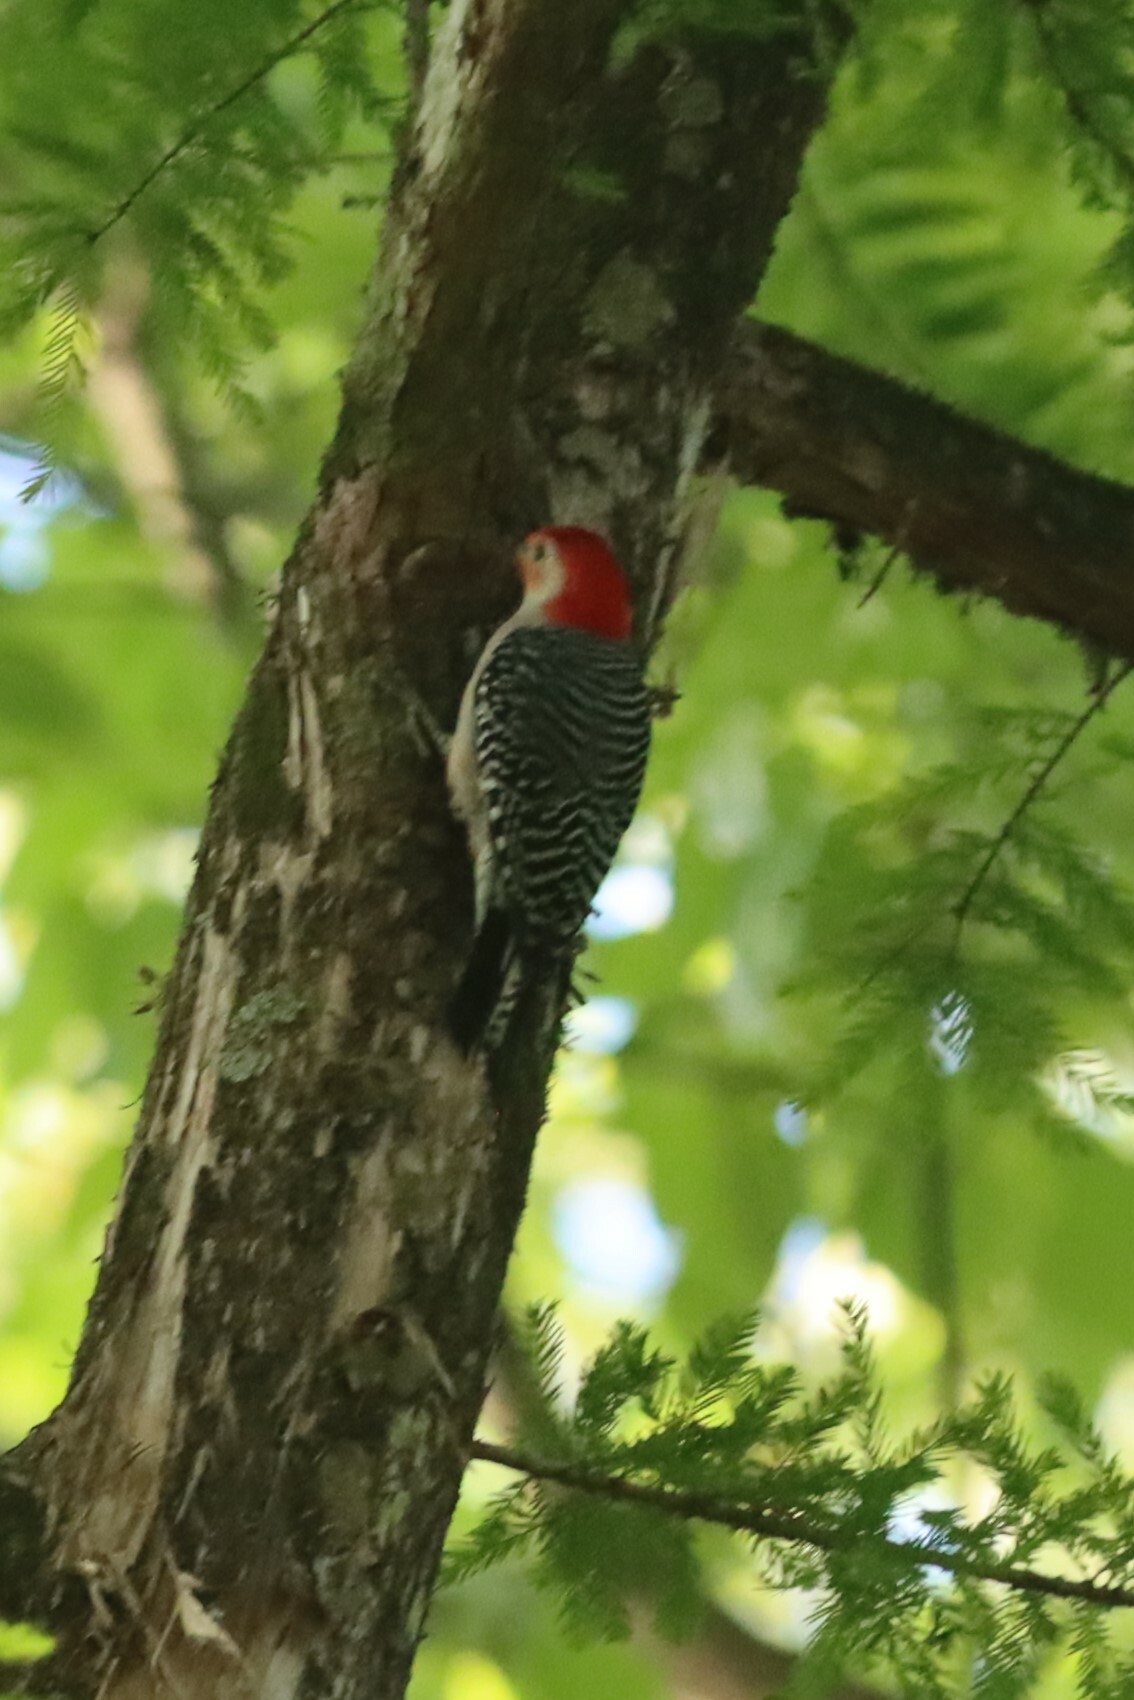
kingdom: Animalia
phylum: Chordata
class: Aves
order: Piciformes
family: Picidae
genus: Melanerpes
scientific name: Melanerpes carolinus
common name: Red-bellied woodpecker
